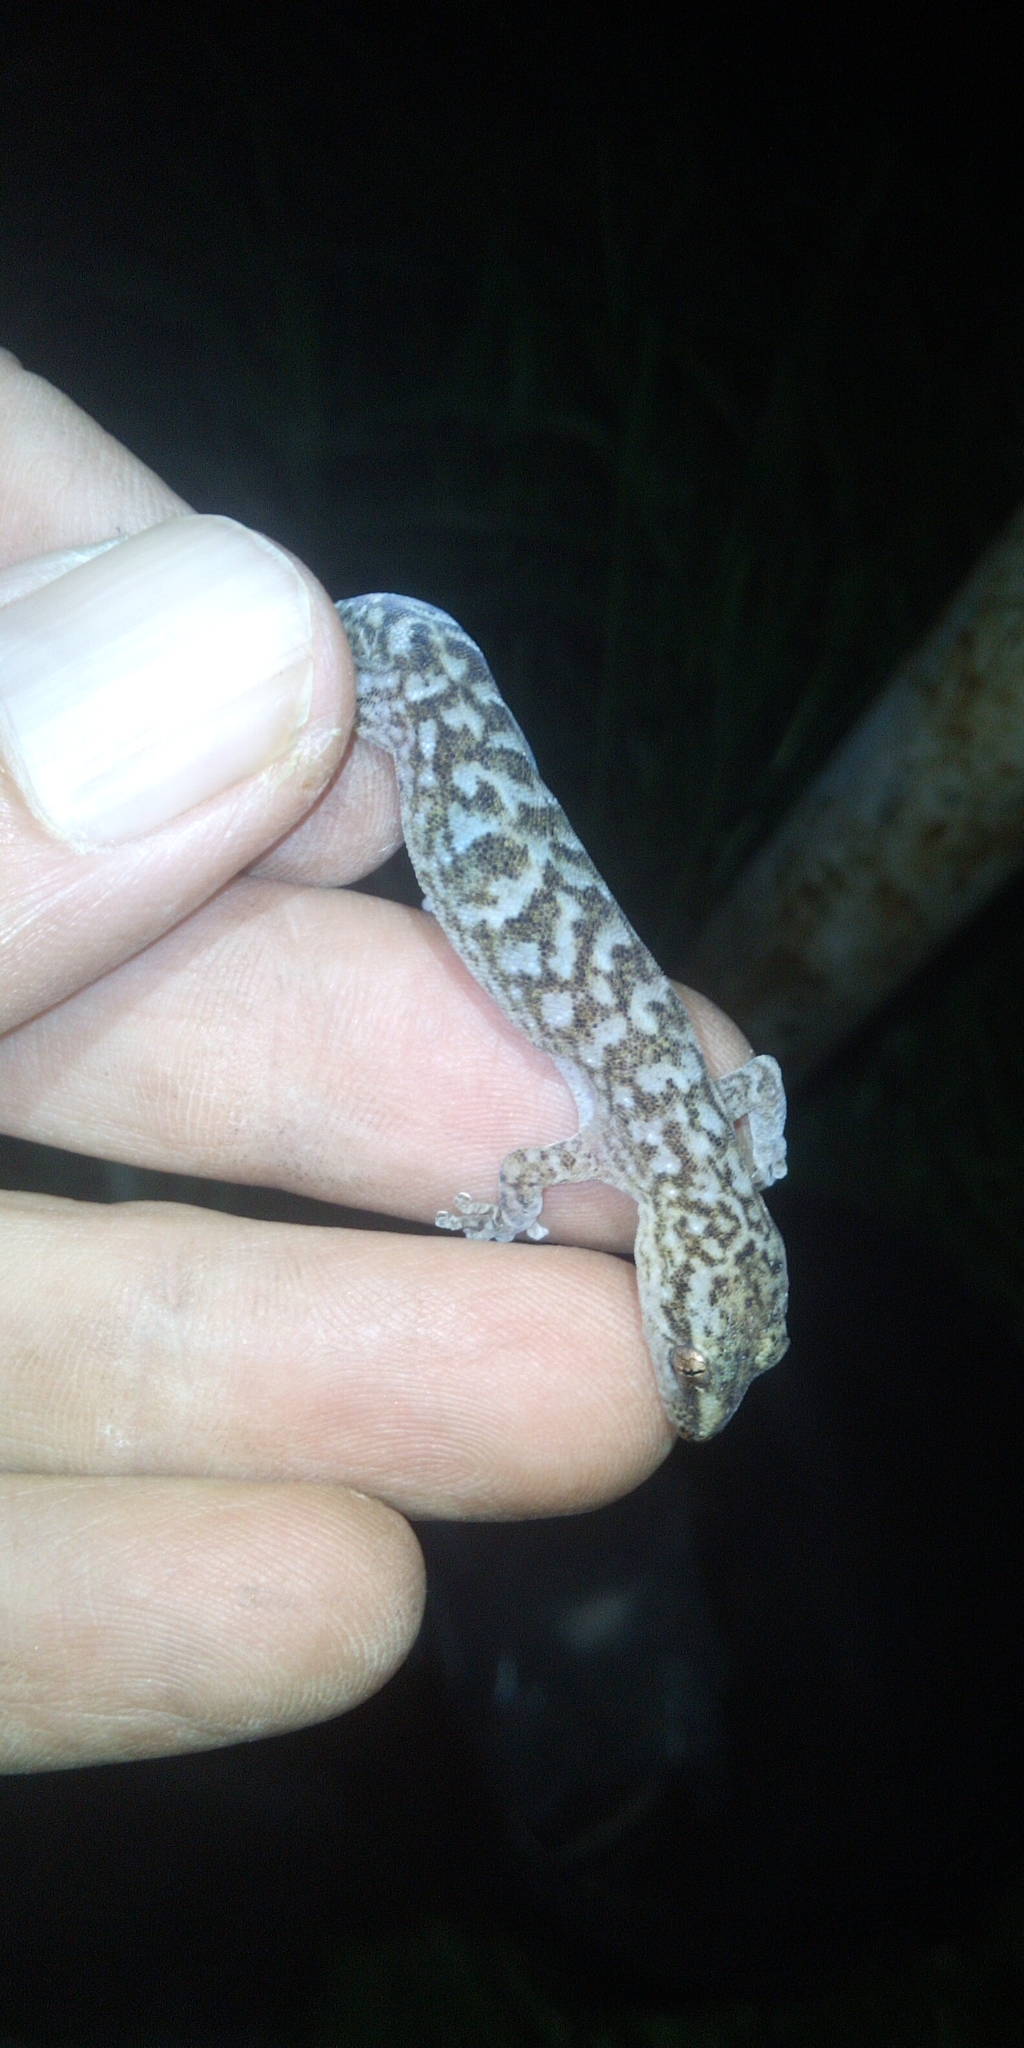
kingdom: Animalia
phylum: Chordata
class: Squamata
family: Gekkonidae
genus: Afrogecko
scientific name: Afrogecko porphyreus
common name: Marbled leaf-toed gecko
